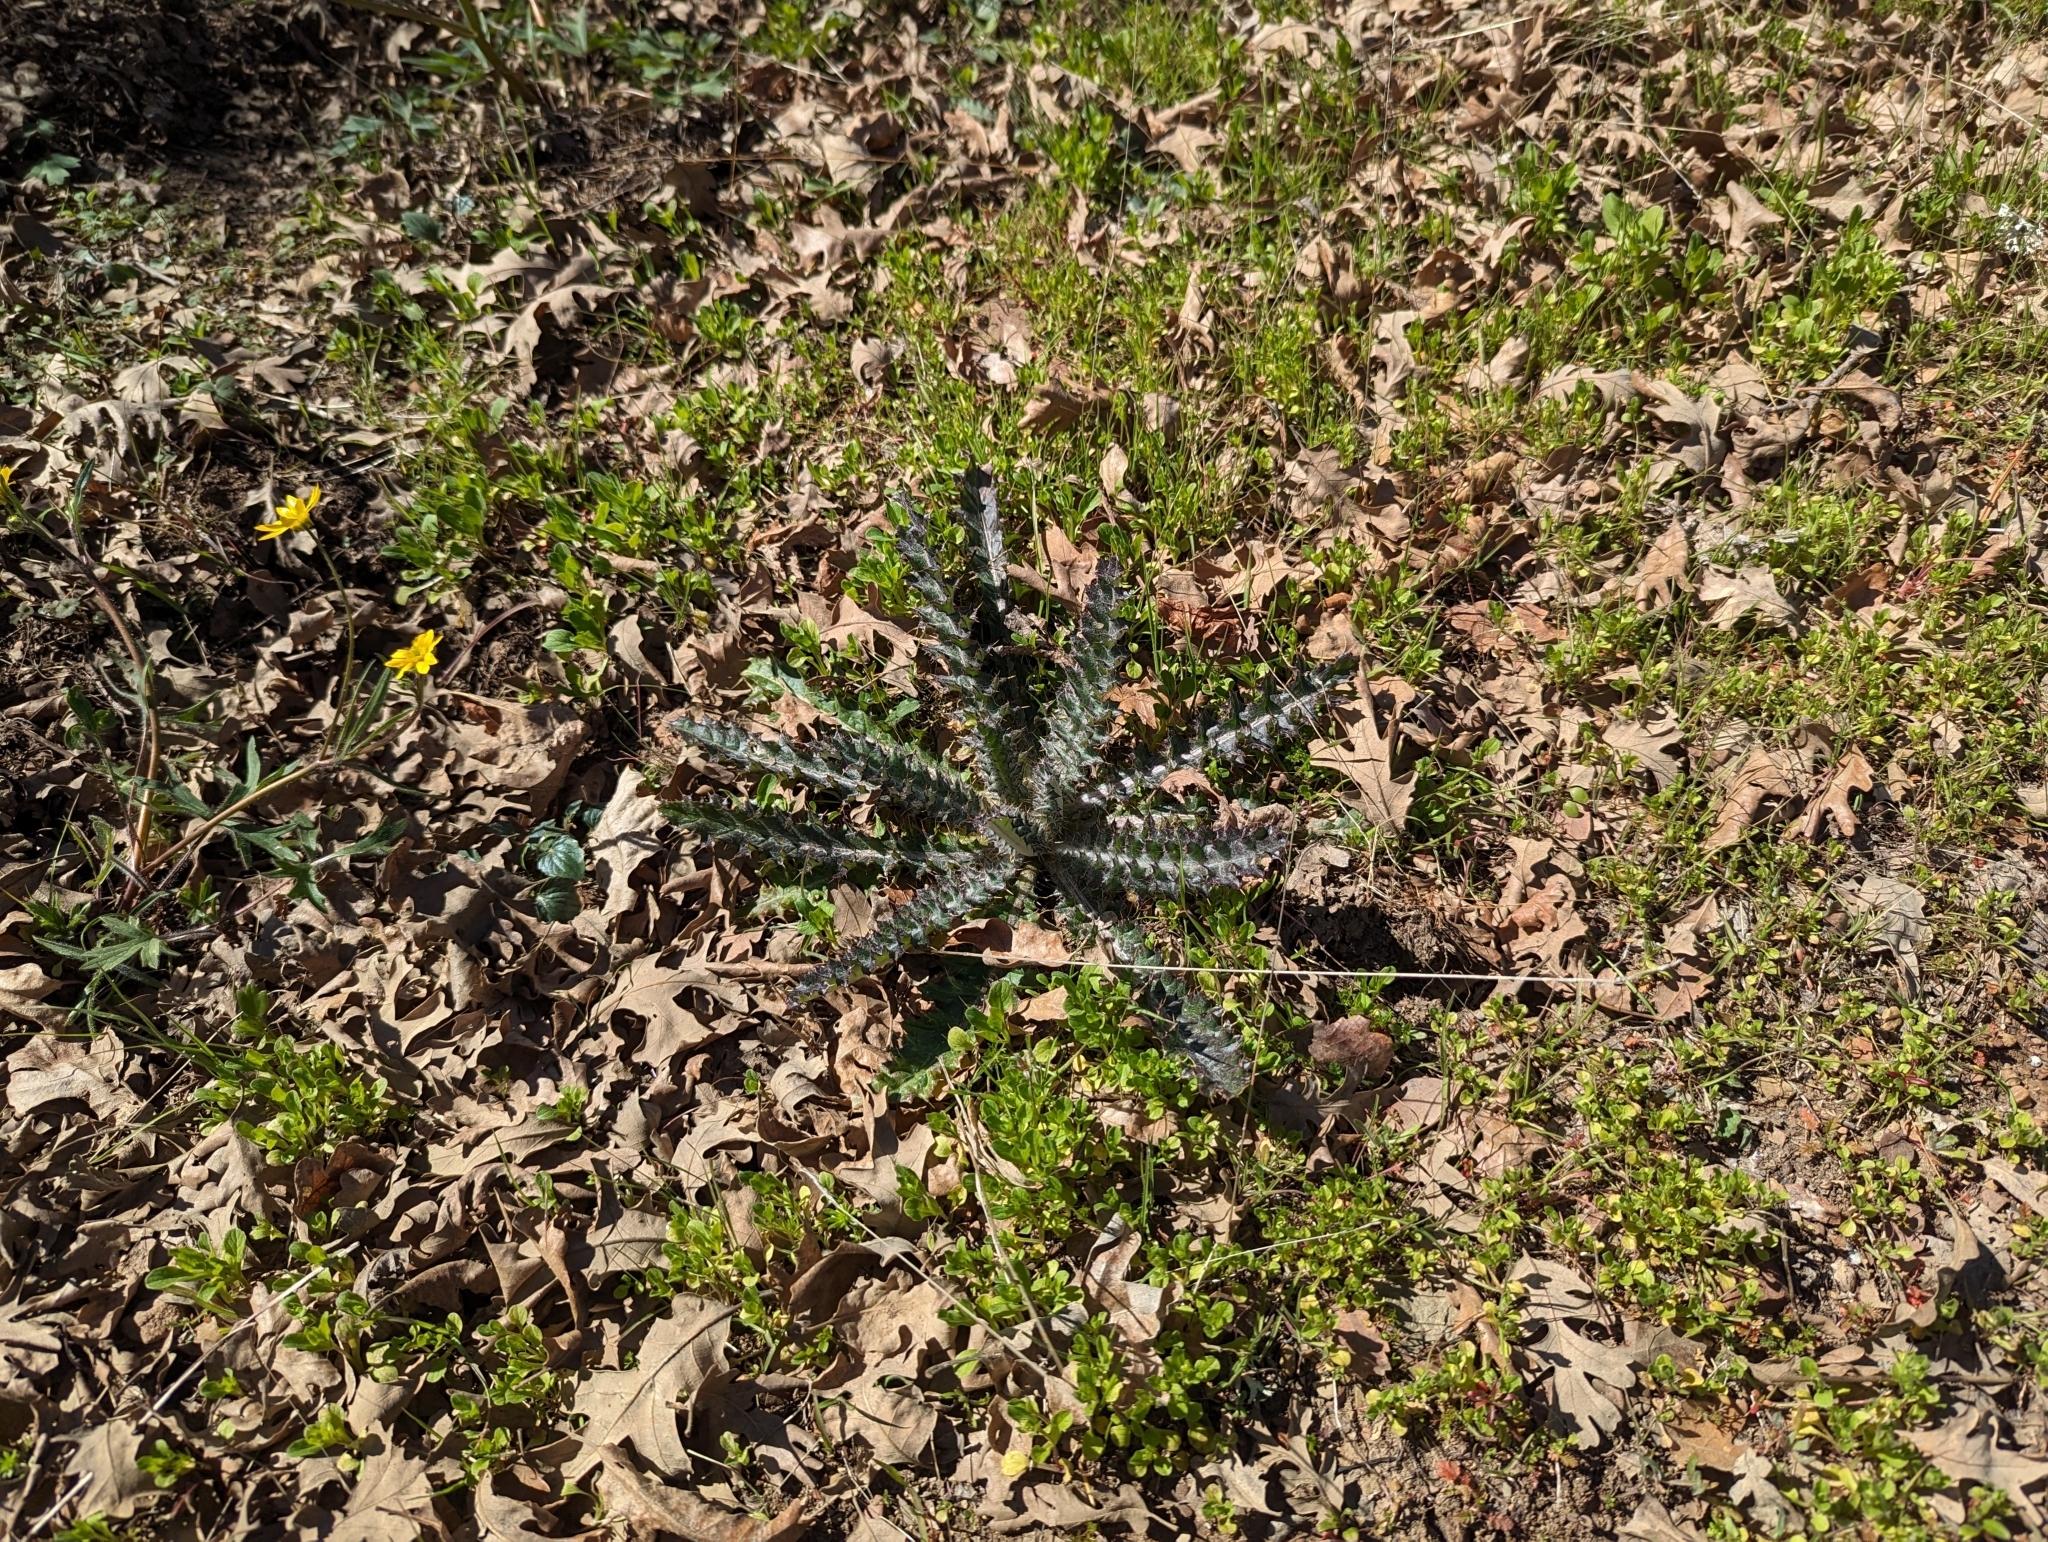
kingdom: Plantae
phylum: Tracheophyta
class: Magnoliopsida
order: Asterales
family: Asteraceae
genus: Cirsium
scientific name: Cirsium occidentale
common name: Western thistle
